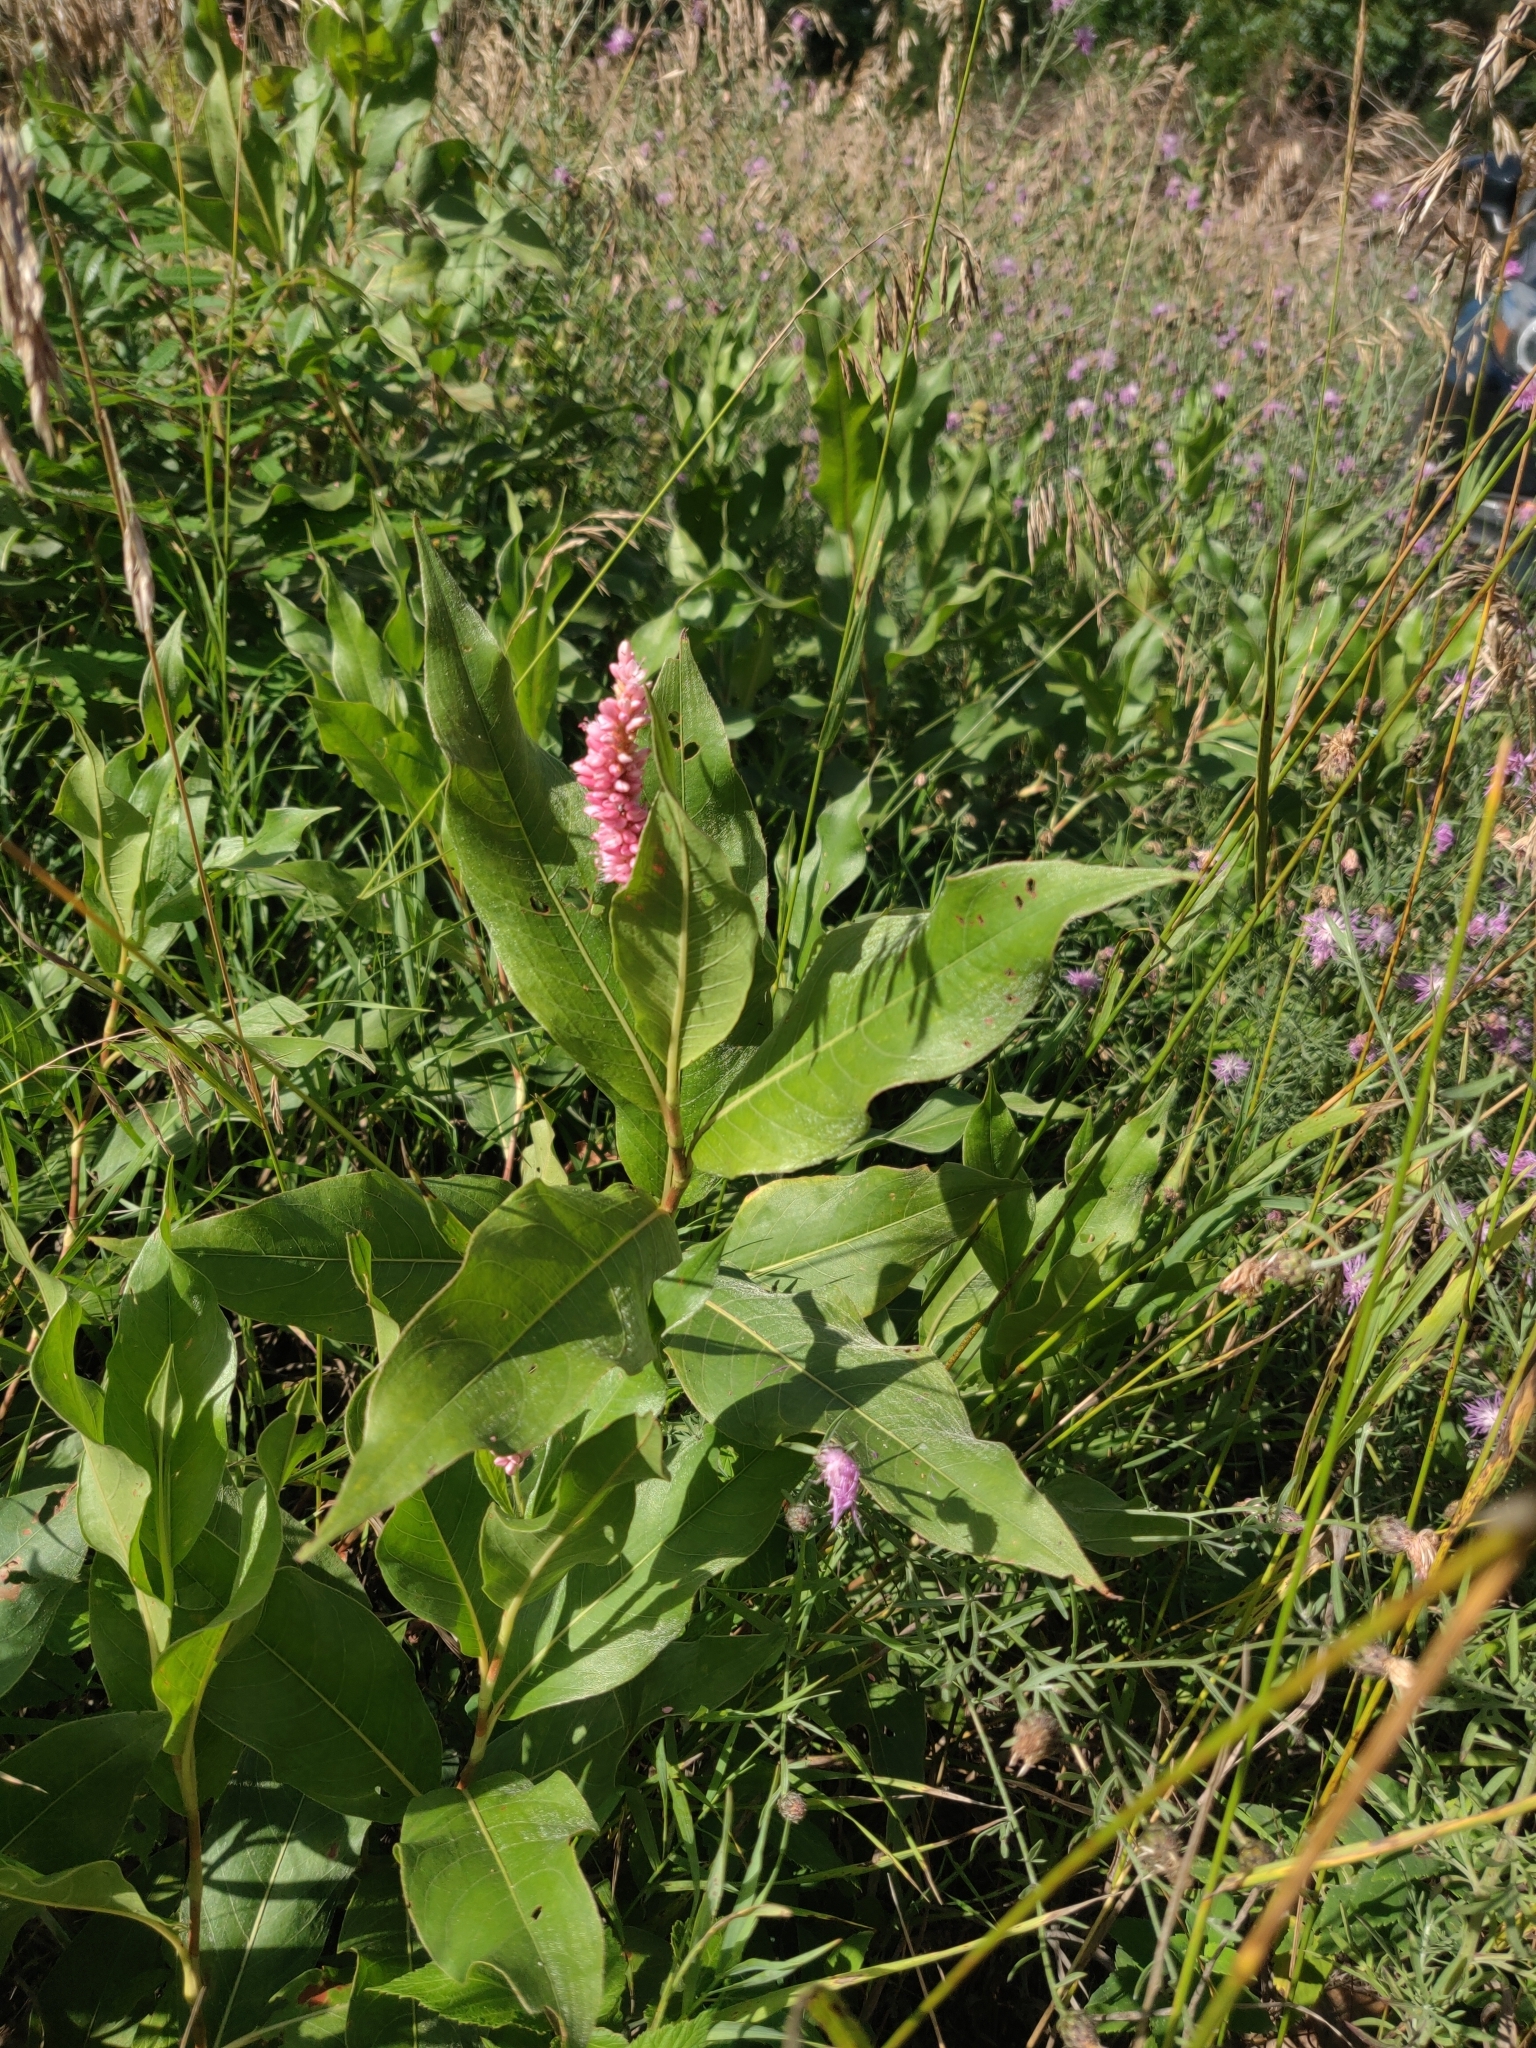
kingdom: Plantae
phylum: Tracheophyta
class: Magnoliopsida
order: Caryophyllales
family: Polygonaceae
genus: Persicaria
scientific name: Persicaria amphibia
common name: Amphibious bistort
